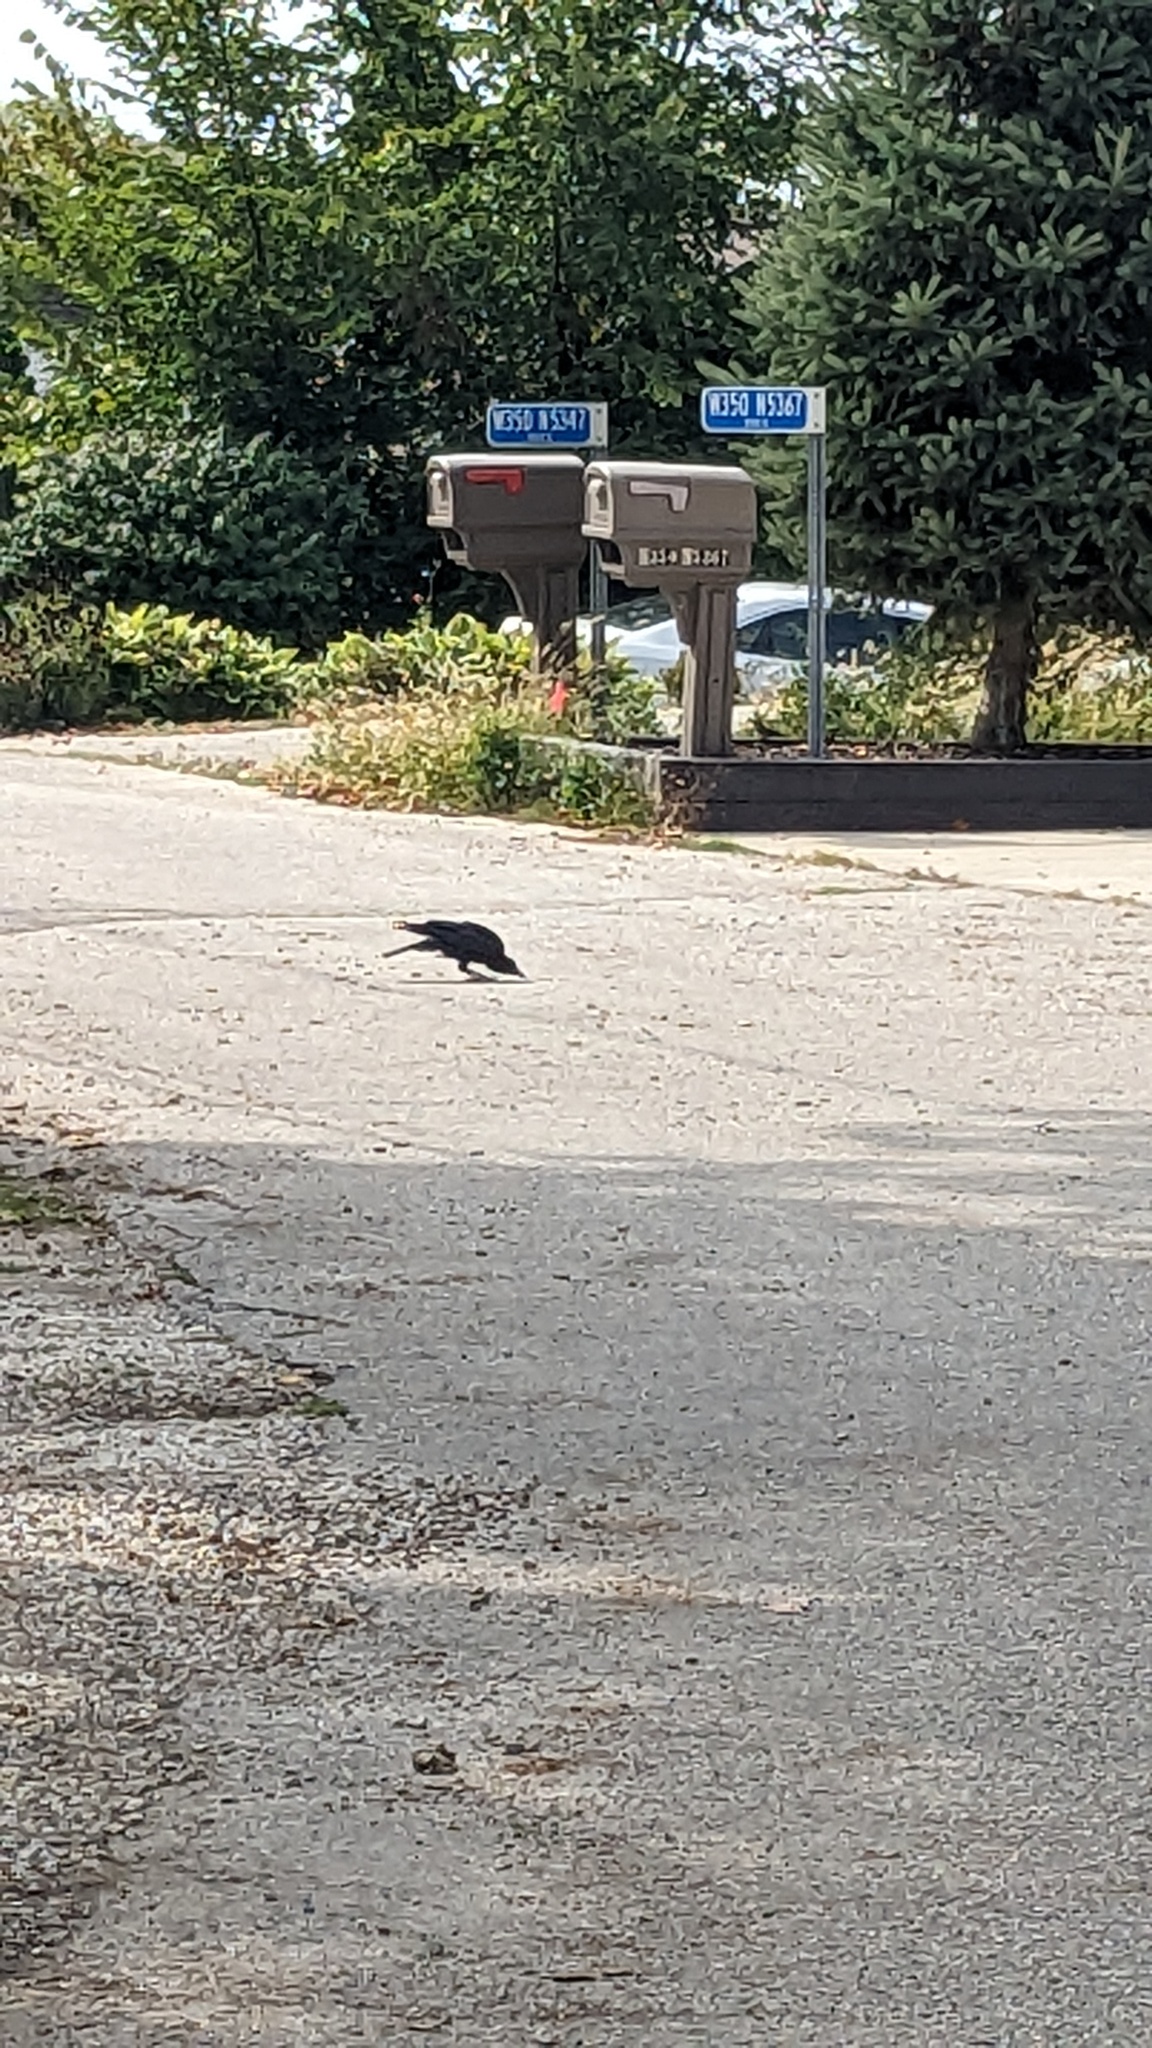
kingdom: Animalia
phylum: Chordata
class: Aves
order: Passeriformes
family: Corvidae
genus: Corvus
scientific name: Corvus brachyrhynchos
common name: American crow
